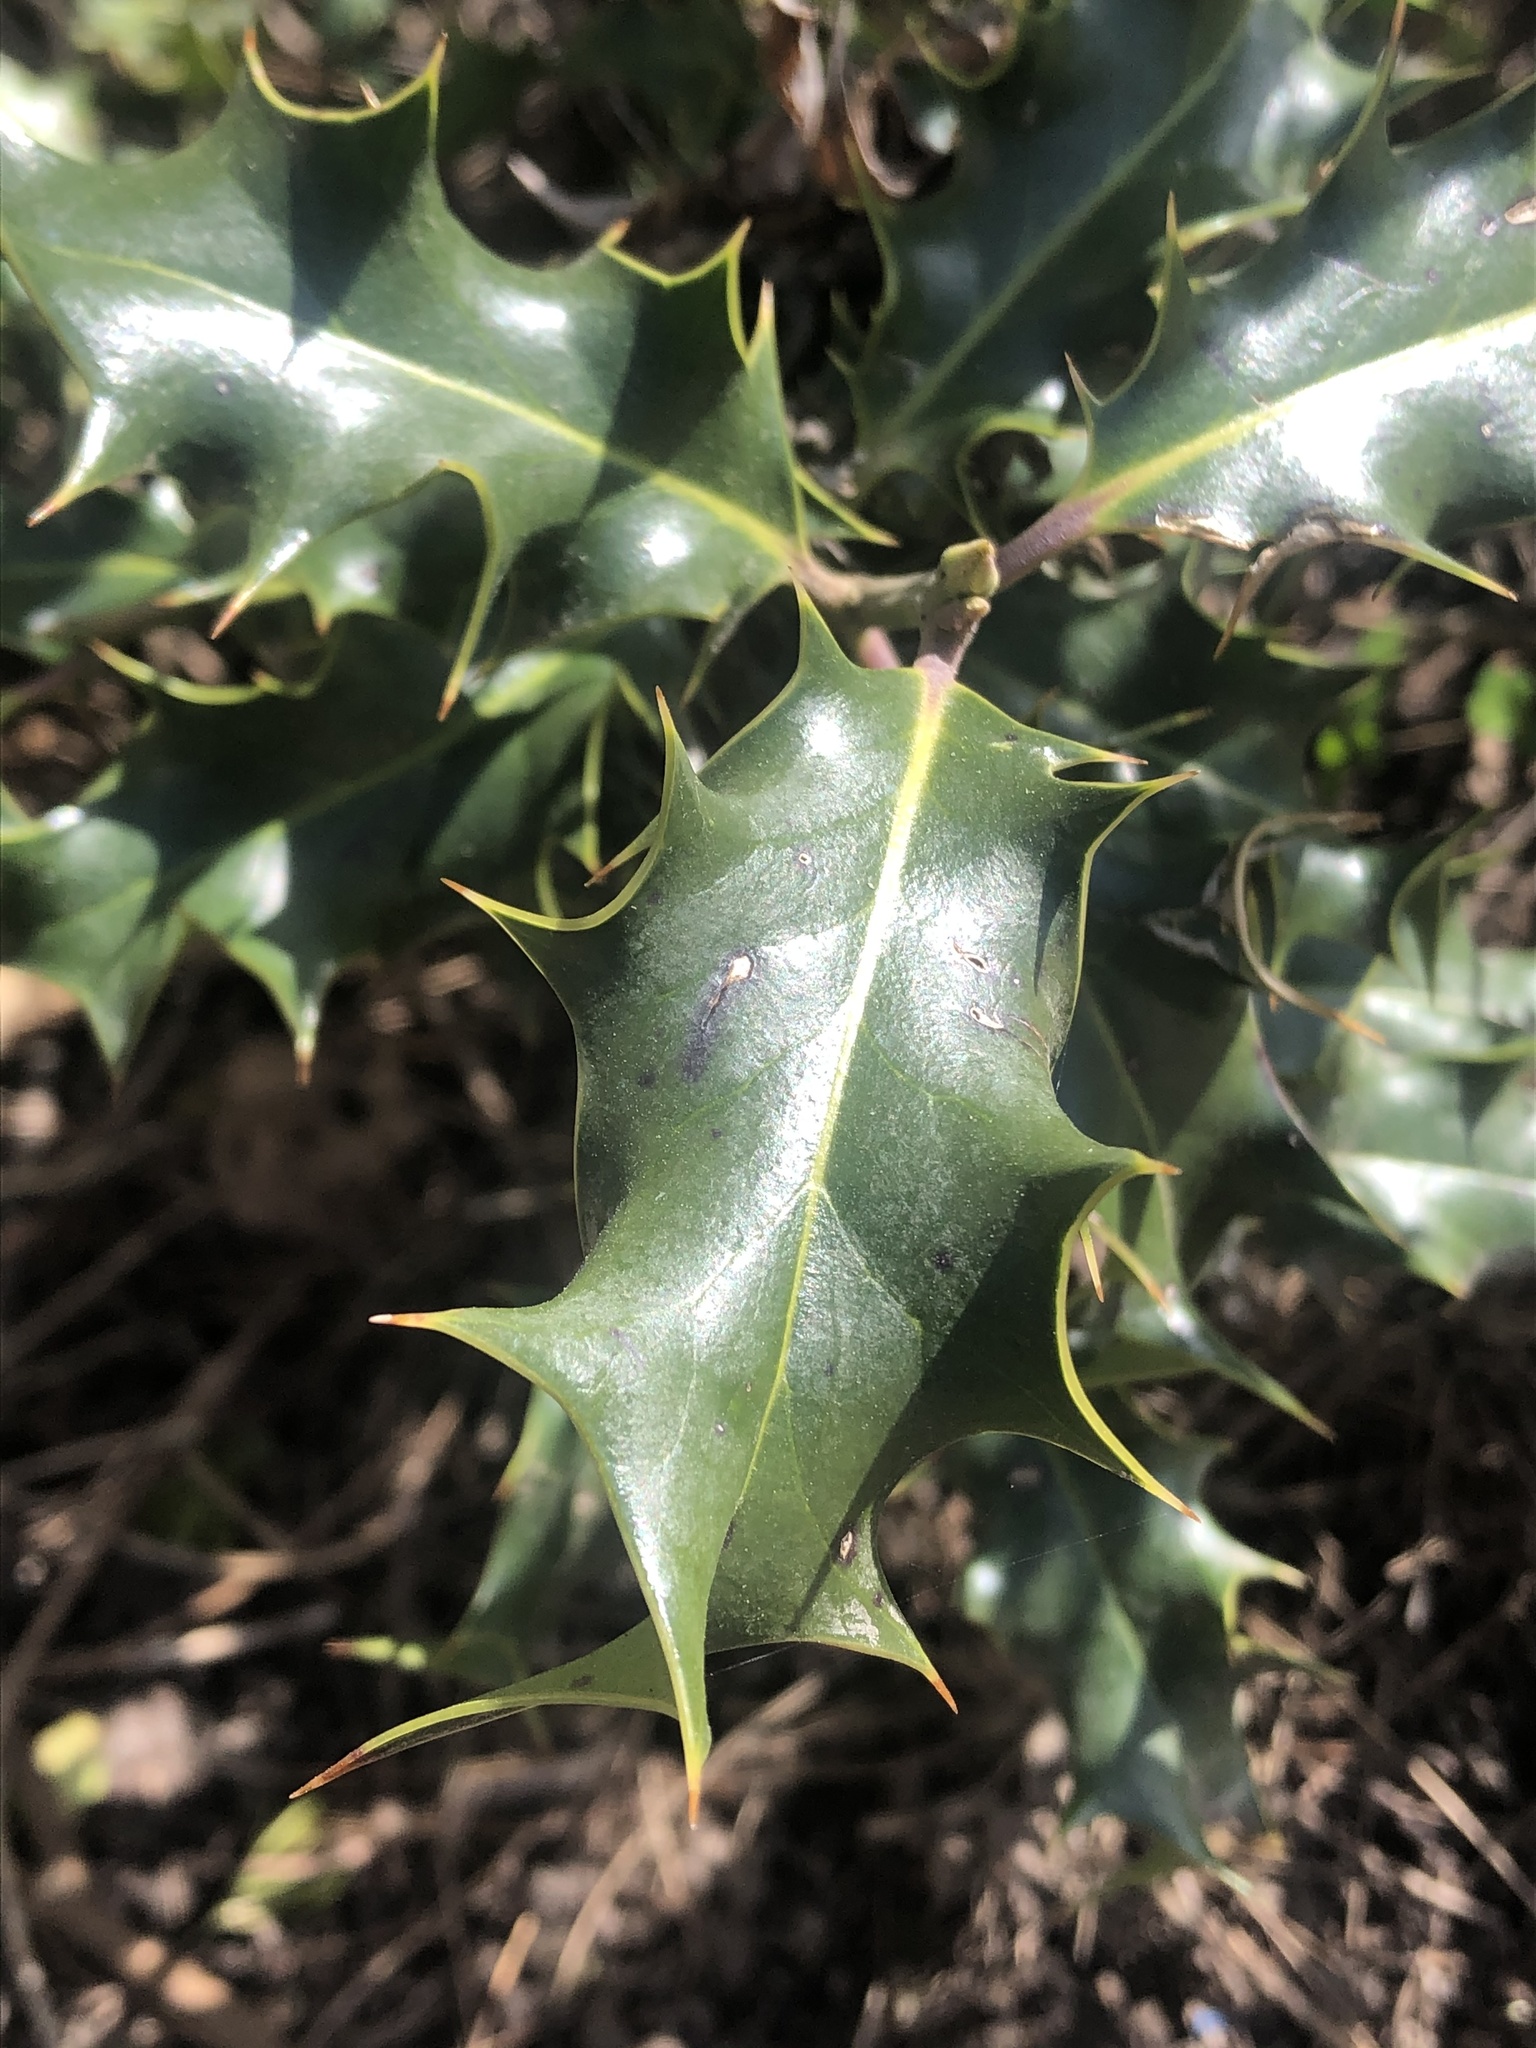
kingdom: Plantae
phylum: Tracheophyta
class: Magnoliopsida
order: Aquifoliales
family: Aquifoliaceae
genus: Ilex
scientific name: Ilex aquifolium
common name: English holly
